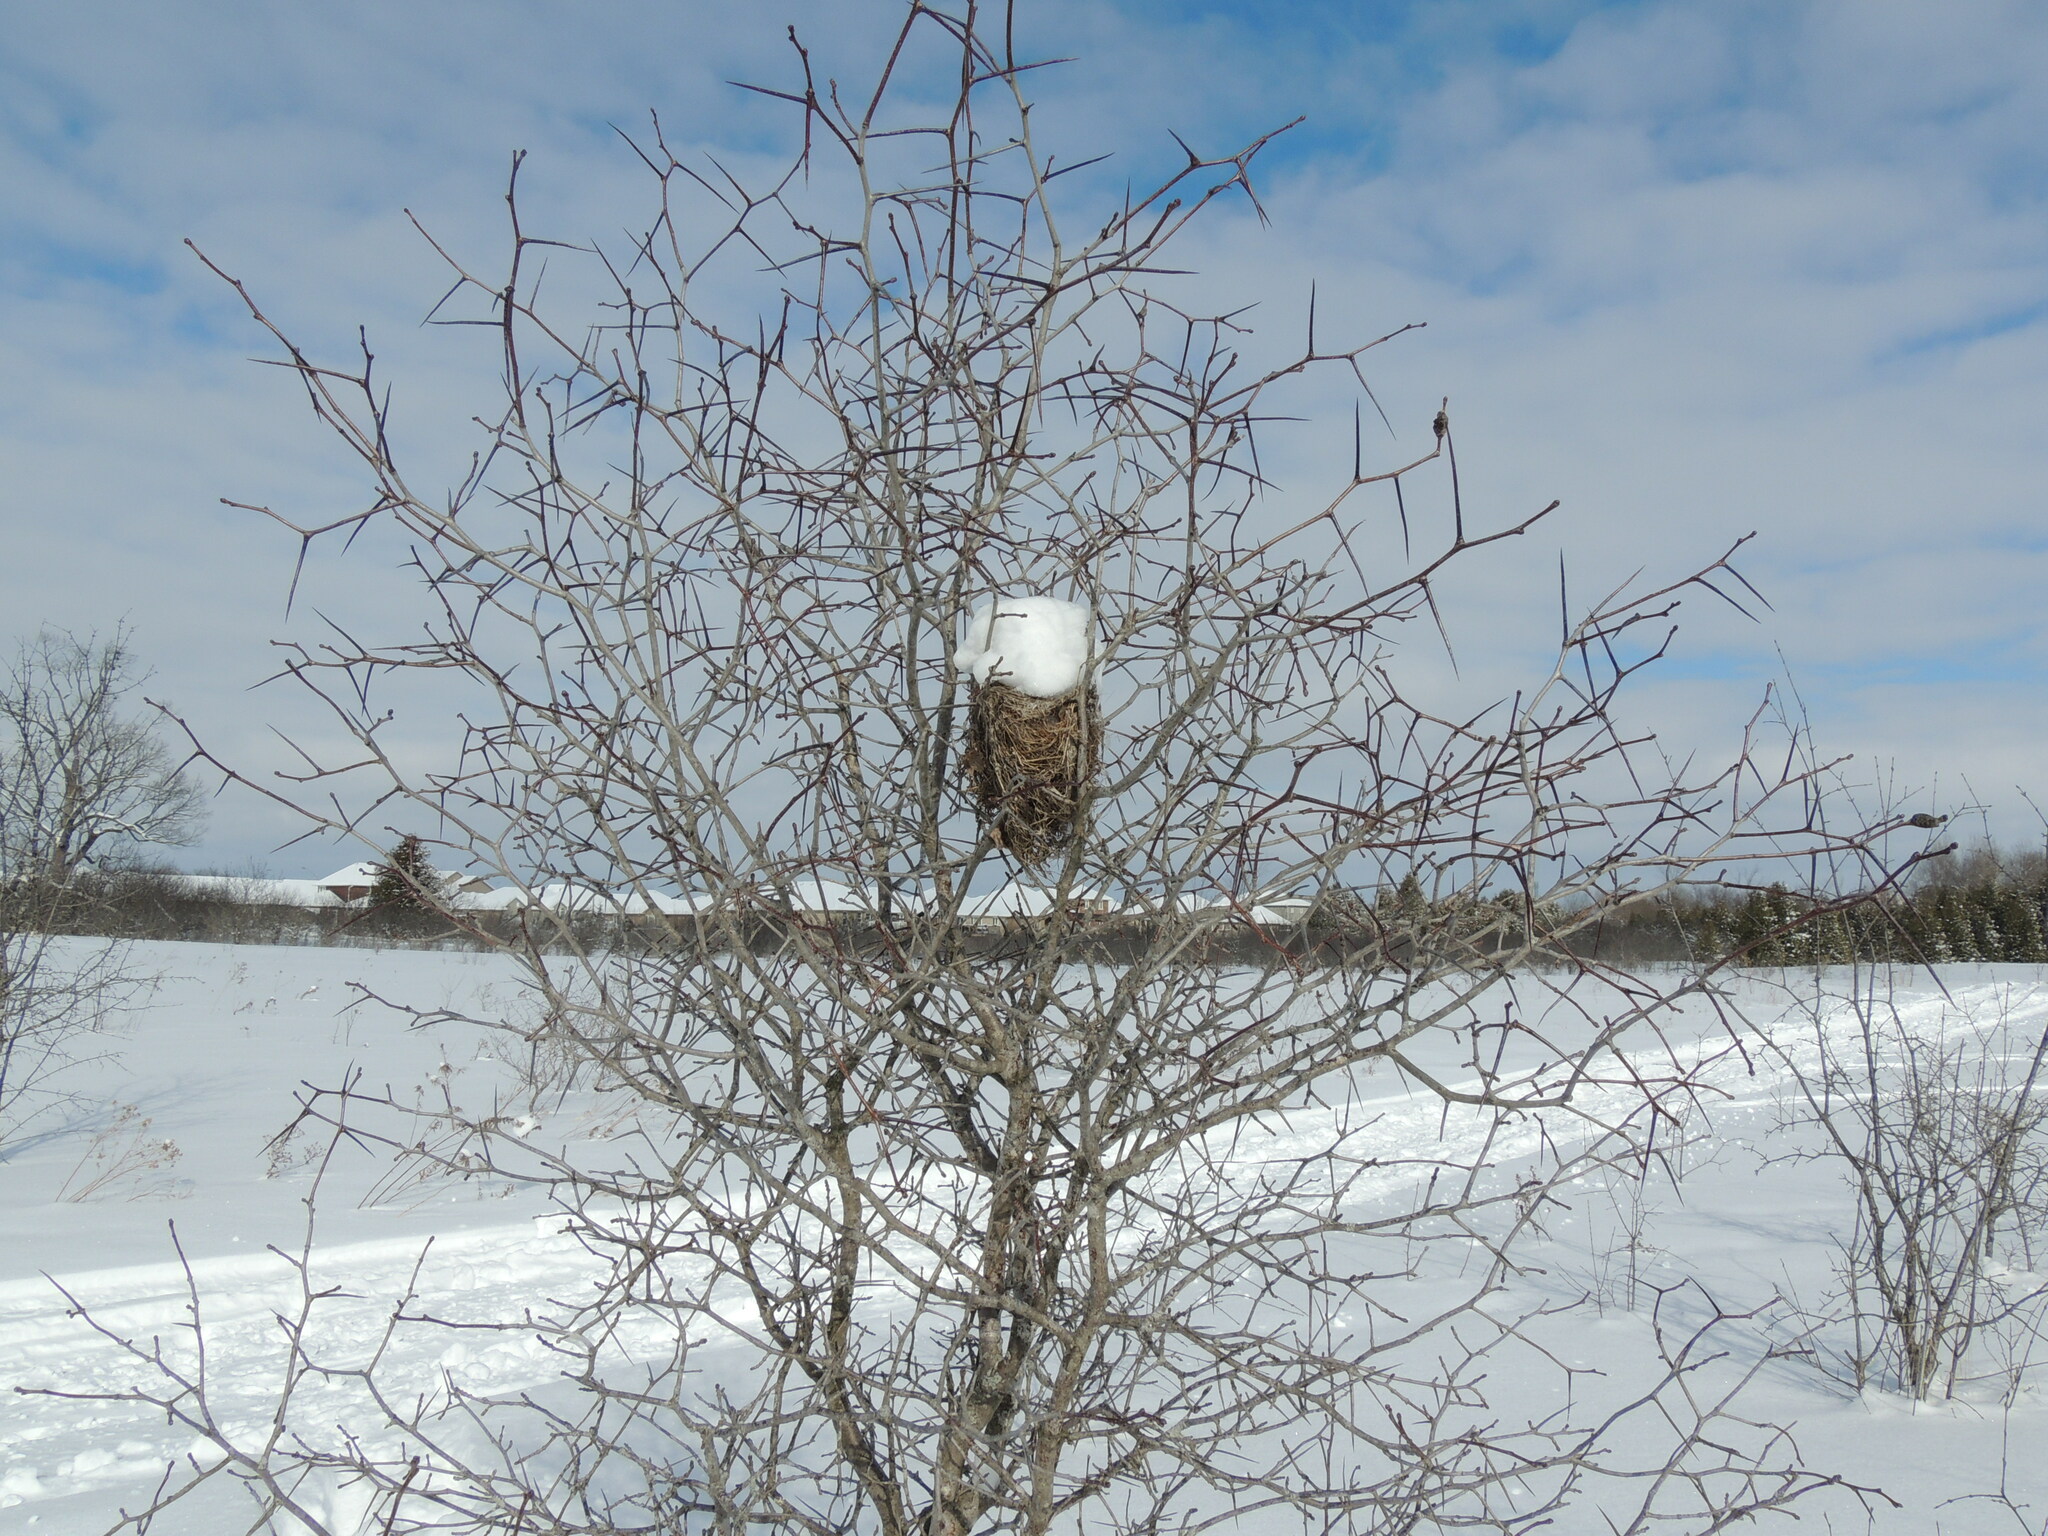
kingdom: Plantae
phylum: Tracheophyta
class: Magnoliopsida
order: Rosales
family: Rosaceae
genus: Crataegus
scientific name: Crataegus
